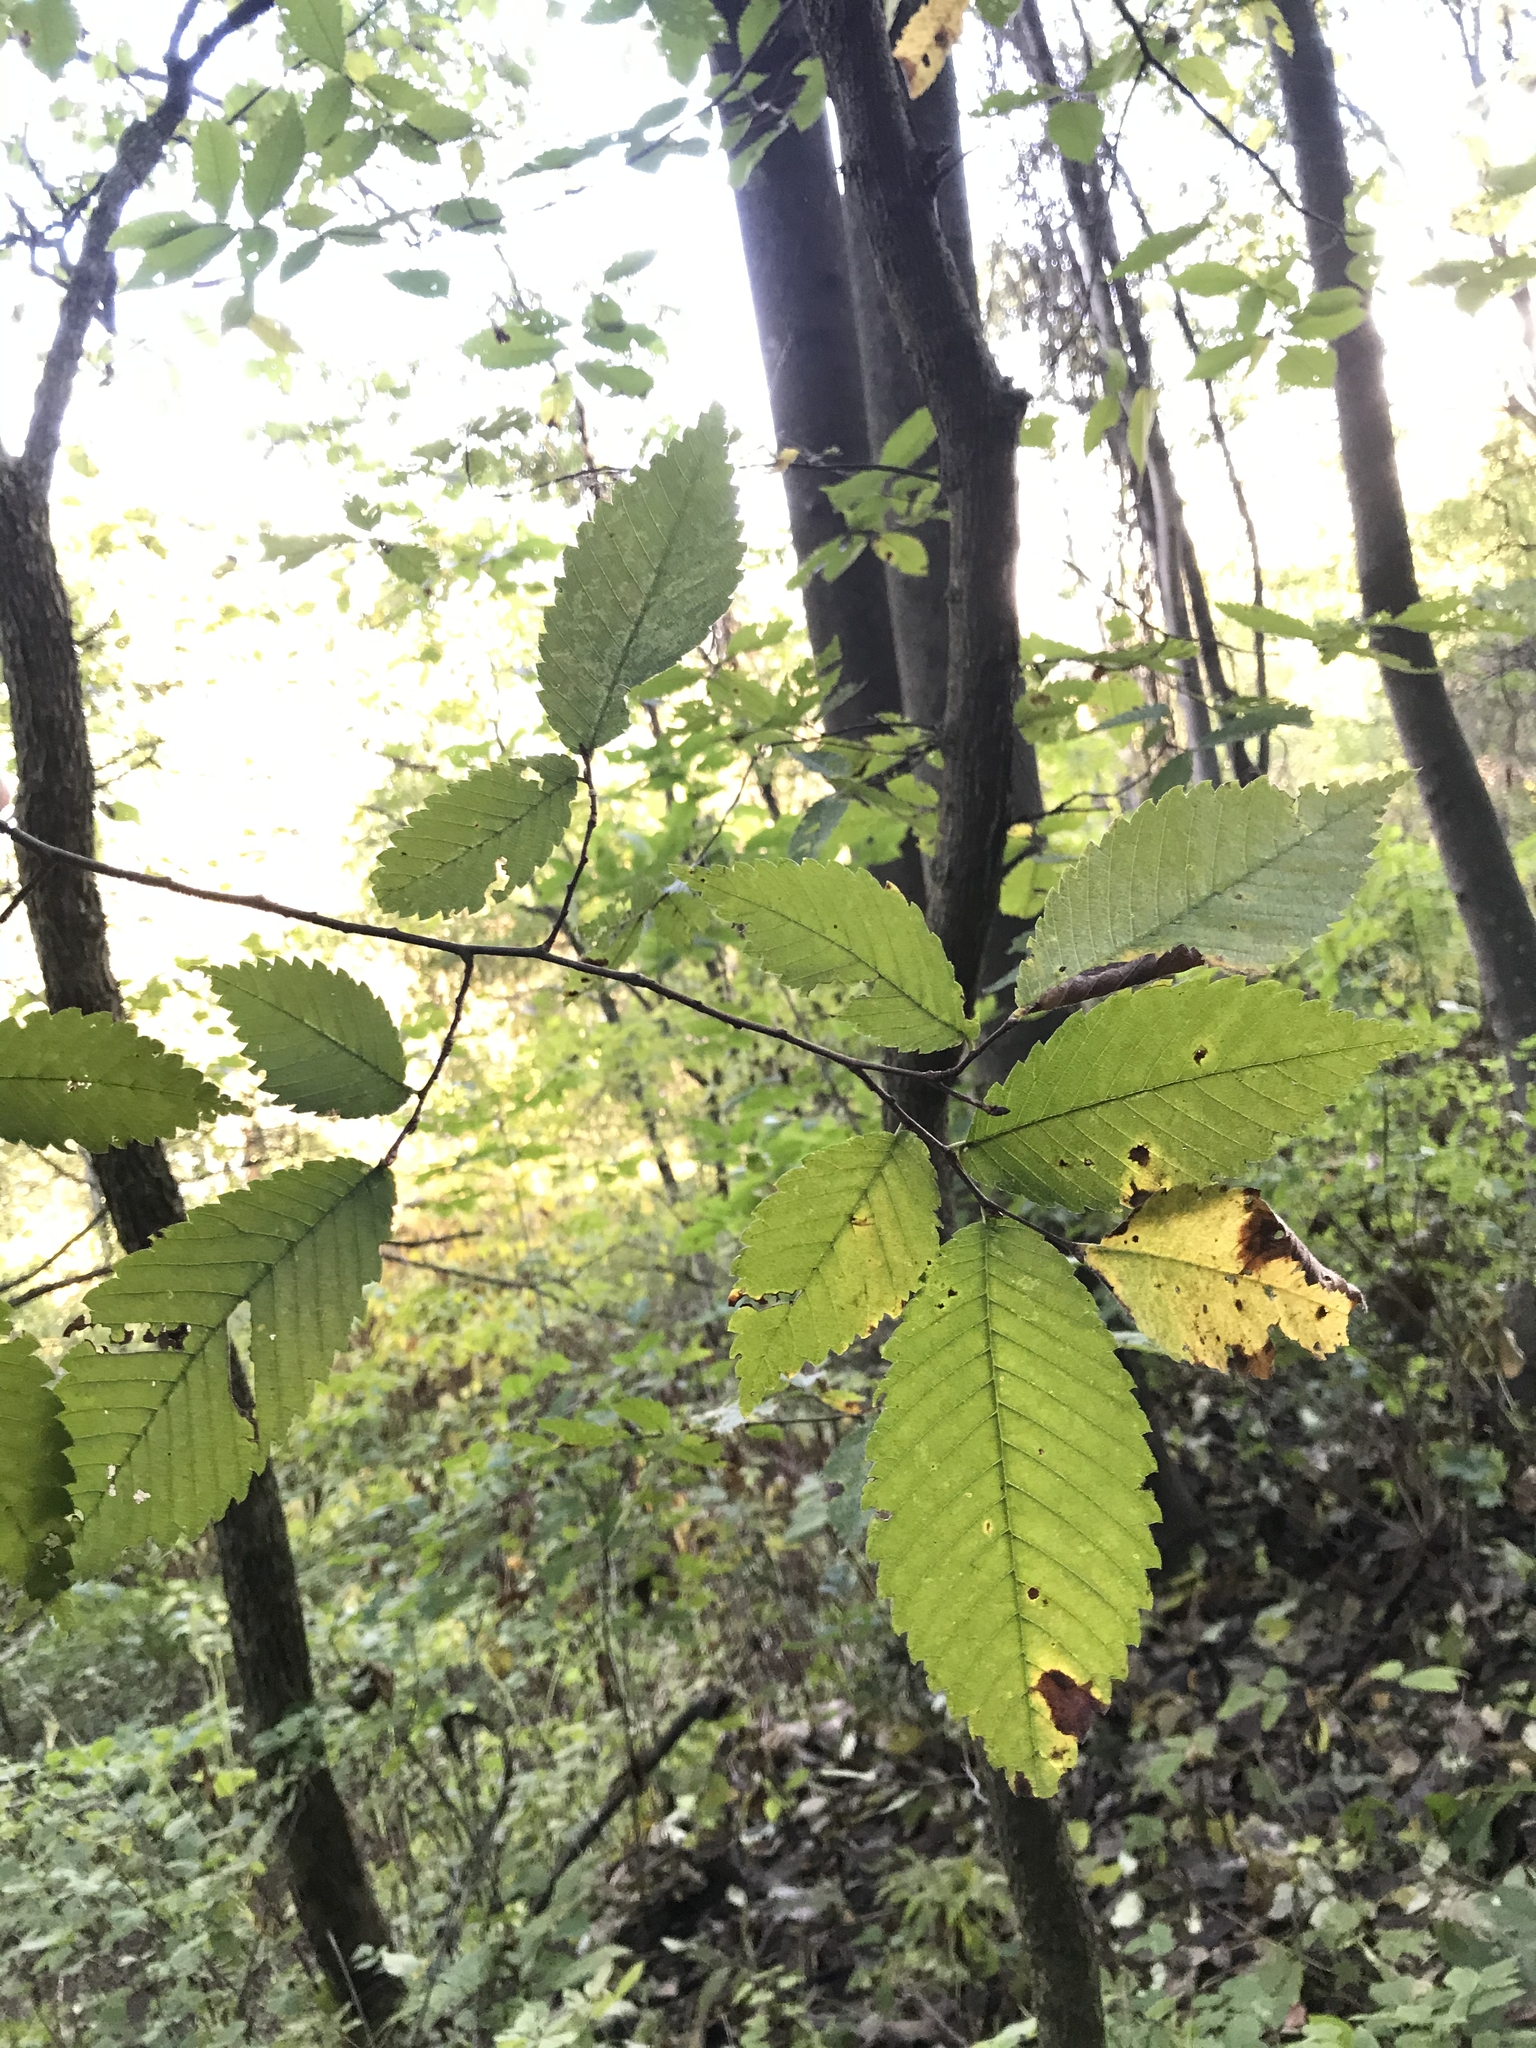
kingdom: Plantae
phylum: Tracheophyta
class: Magnoliopsida
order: Rosales
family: Ulmaceae
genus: Ulmus
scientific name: Ulmus rubra
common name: Slippery elm
